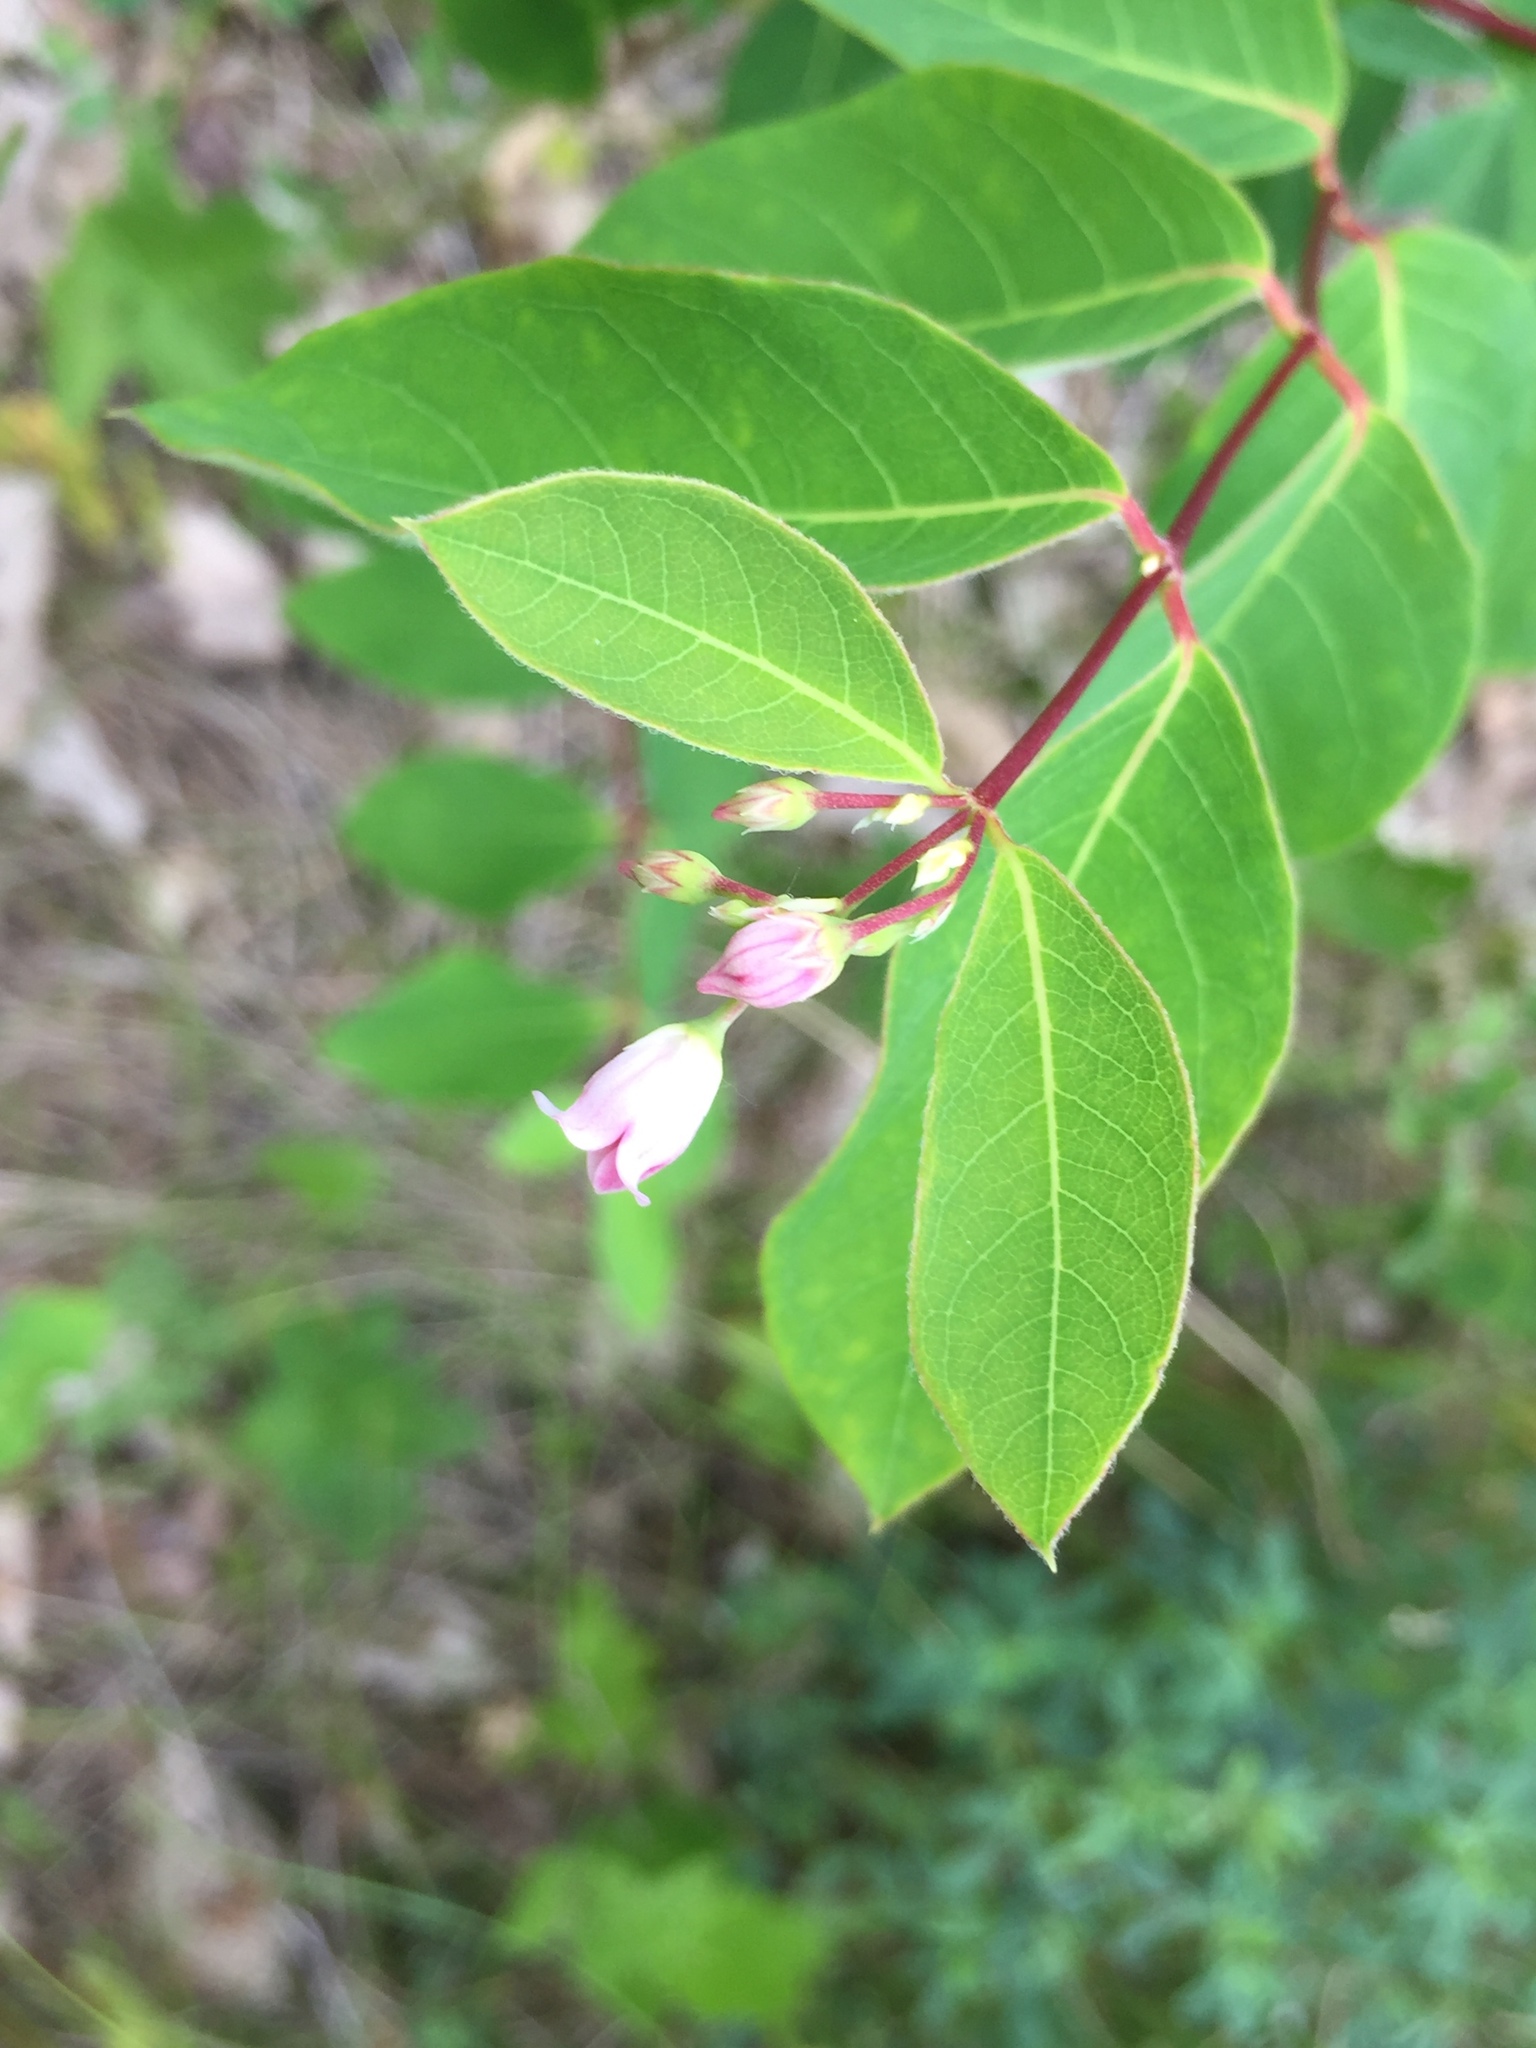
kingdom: Plantae
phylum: Tracheophyta
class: Magnoliopsida
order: Gentianales
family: Apocynaceae
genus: Apocynum
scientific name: Apocynum androsaemifolium
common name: Spreading dogbane
